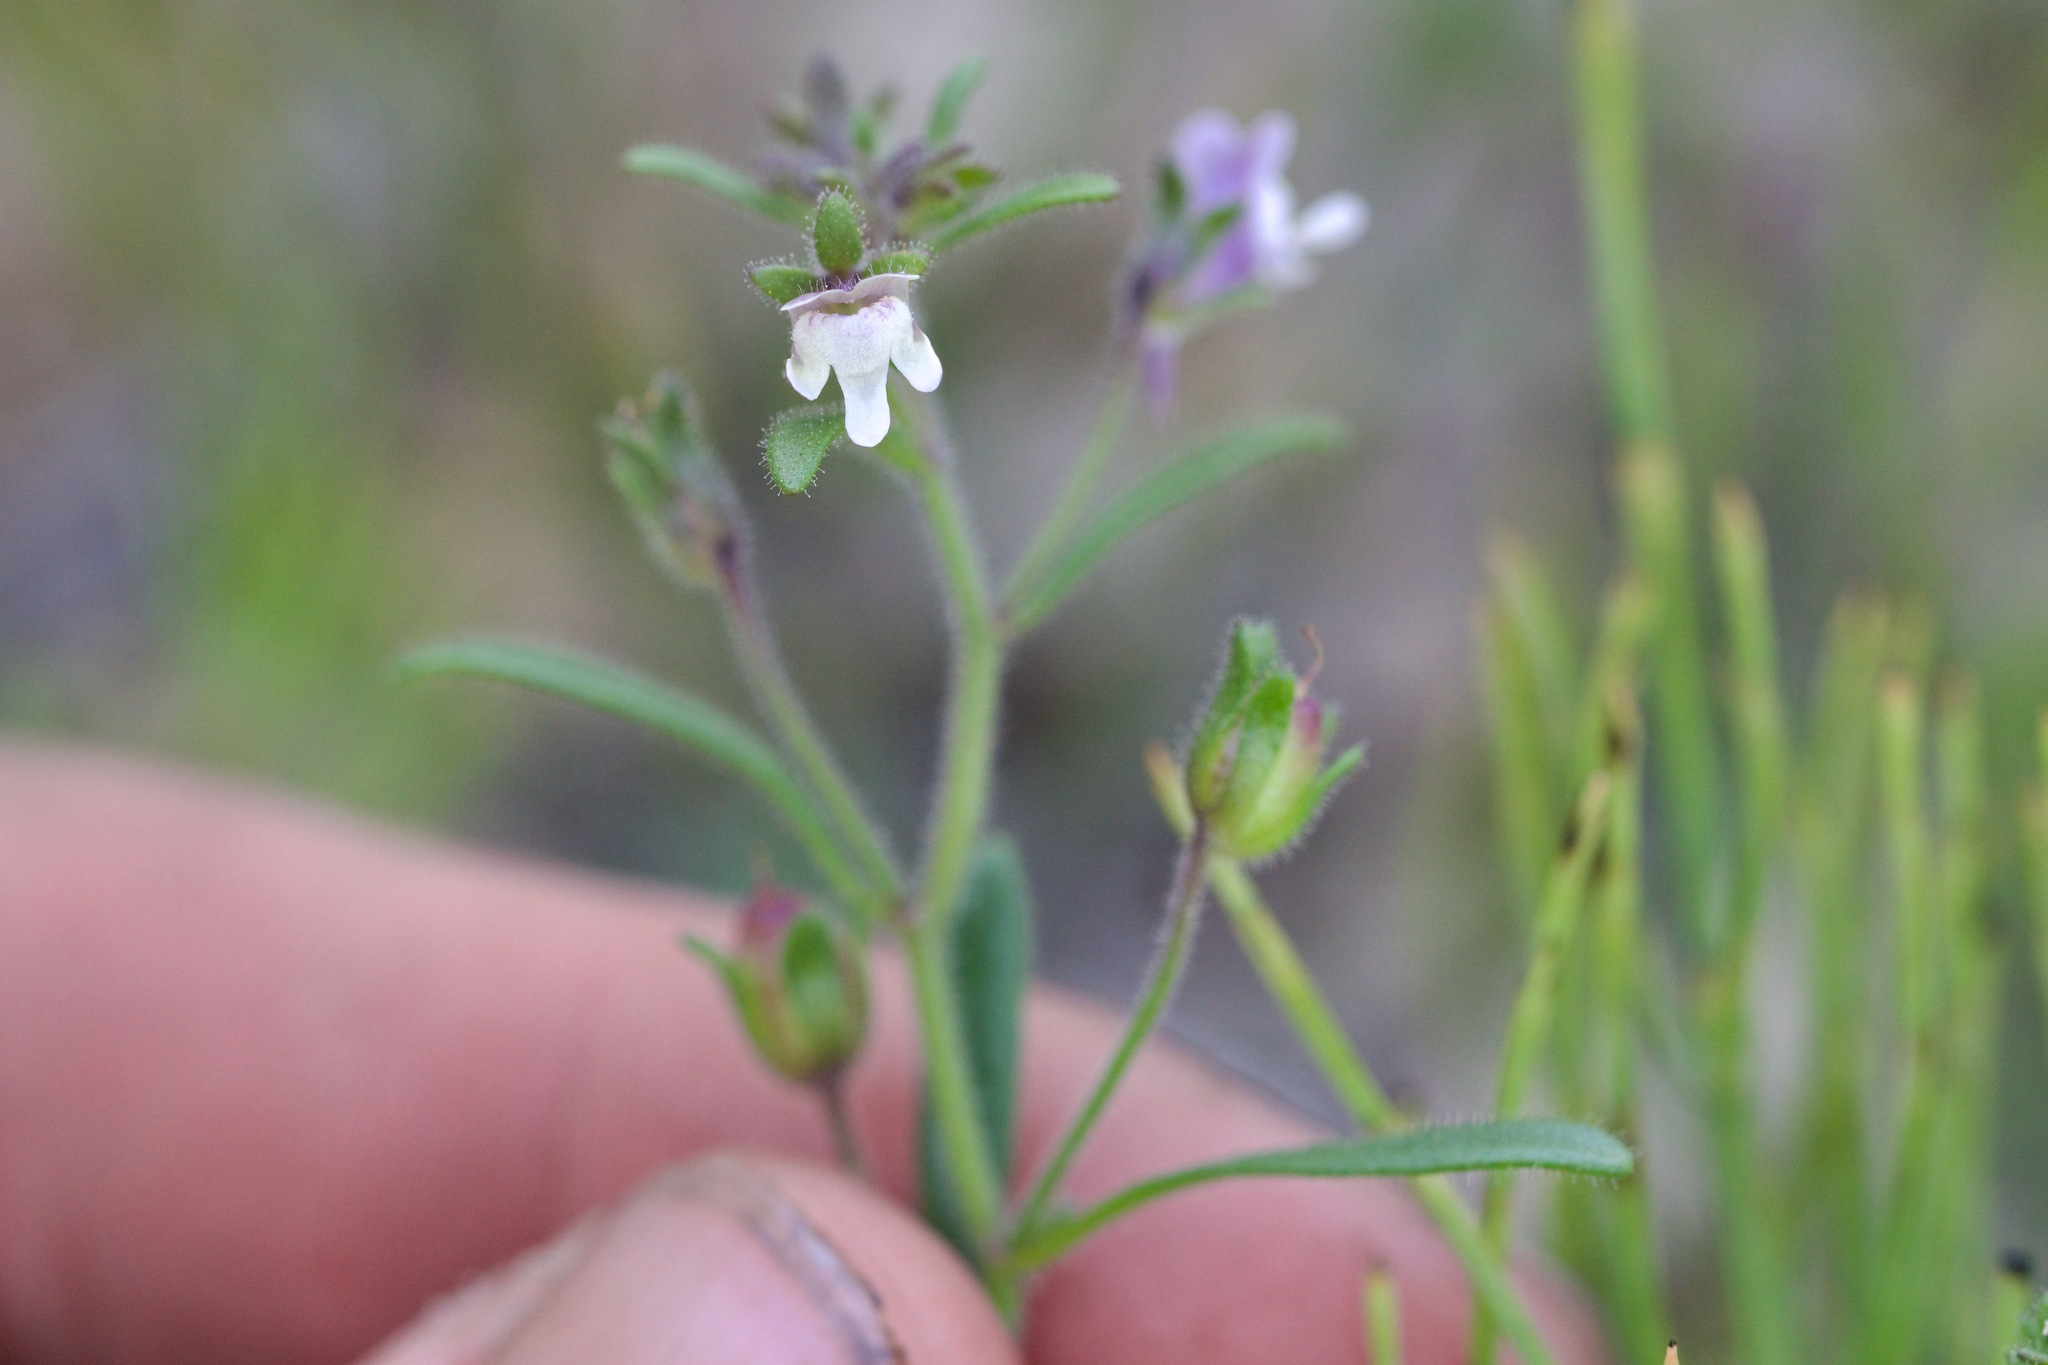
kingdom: Plantae
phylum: Tracheophyta
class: Magnoliopsida
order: Lamiales
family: Plantaginaceae
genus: Chaenorhinum
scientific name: Chaenorhinum minus
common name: Dwarf snapdragon
